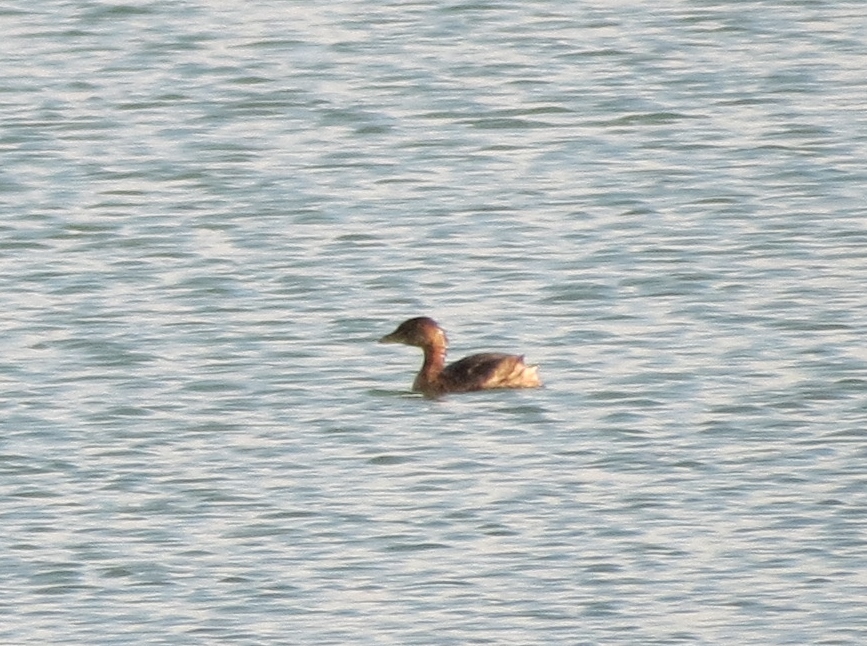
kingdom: Animalia
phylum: Chordata
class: Aves
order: Podicipediformes
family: Podicipedidae
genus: Podilymbus
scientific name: Podilymbus podiceps
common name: Pied-billed grebe
